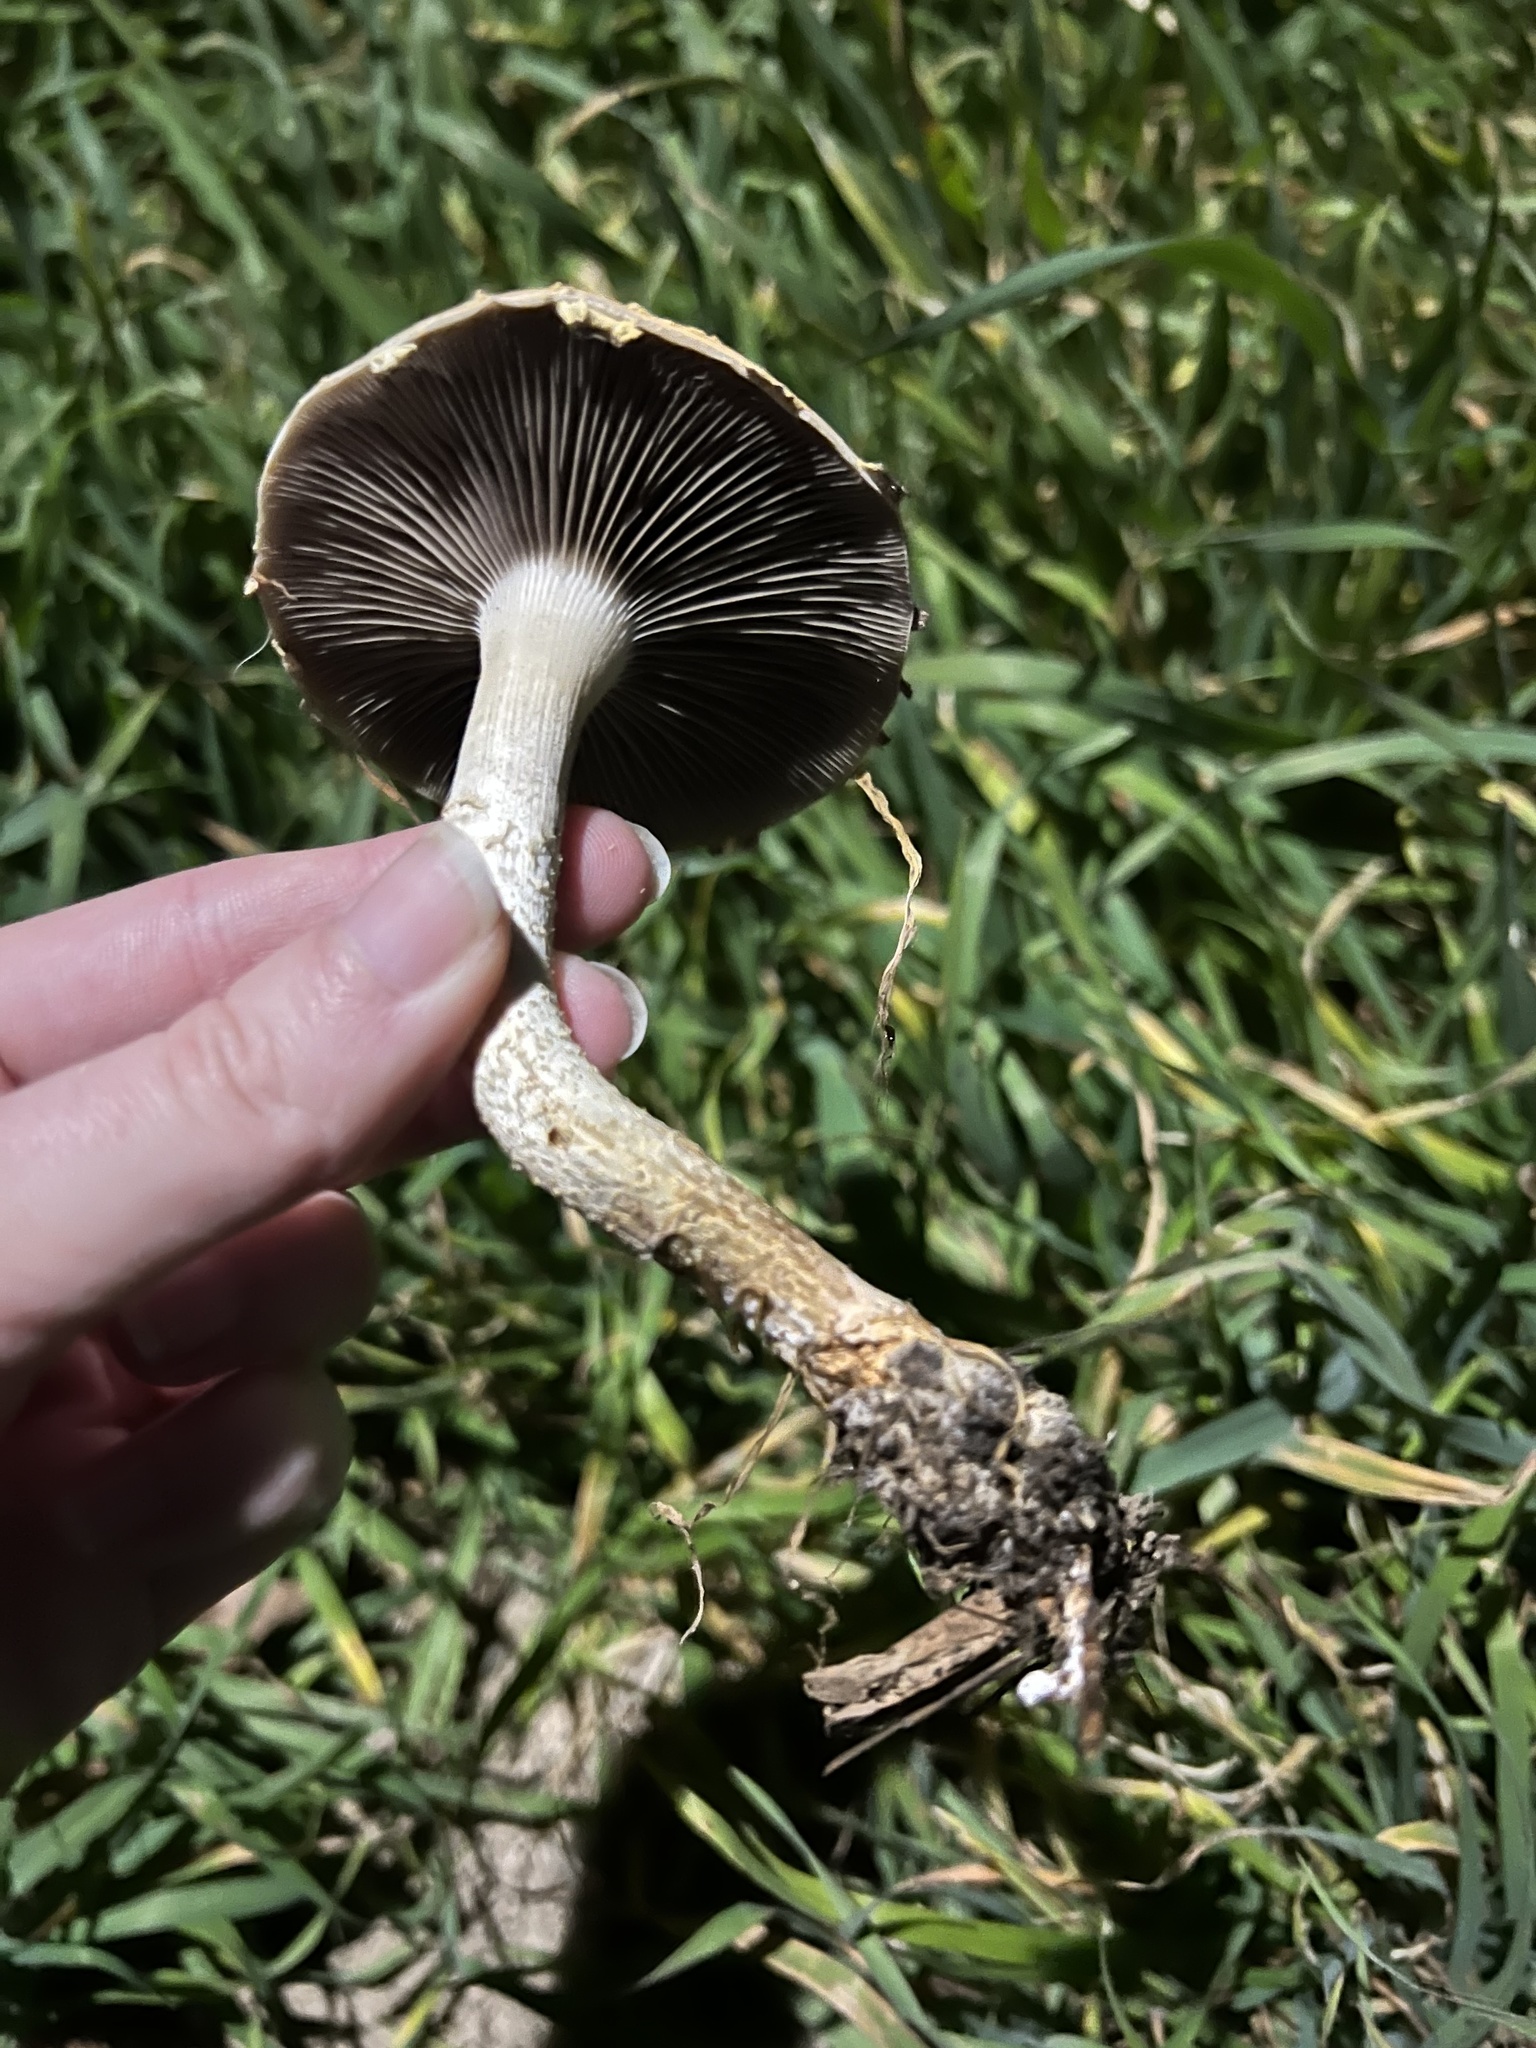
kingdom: Fungi
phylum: Basidiomycota
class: Agaricomycetes
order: Agaricales
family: Strophariaceae
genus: Leratiomyces
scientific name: Leratiomyces percevalii
